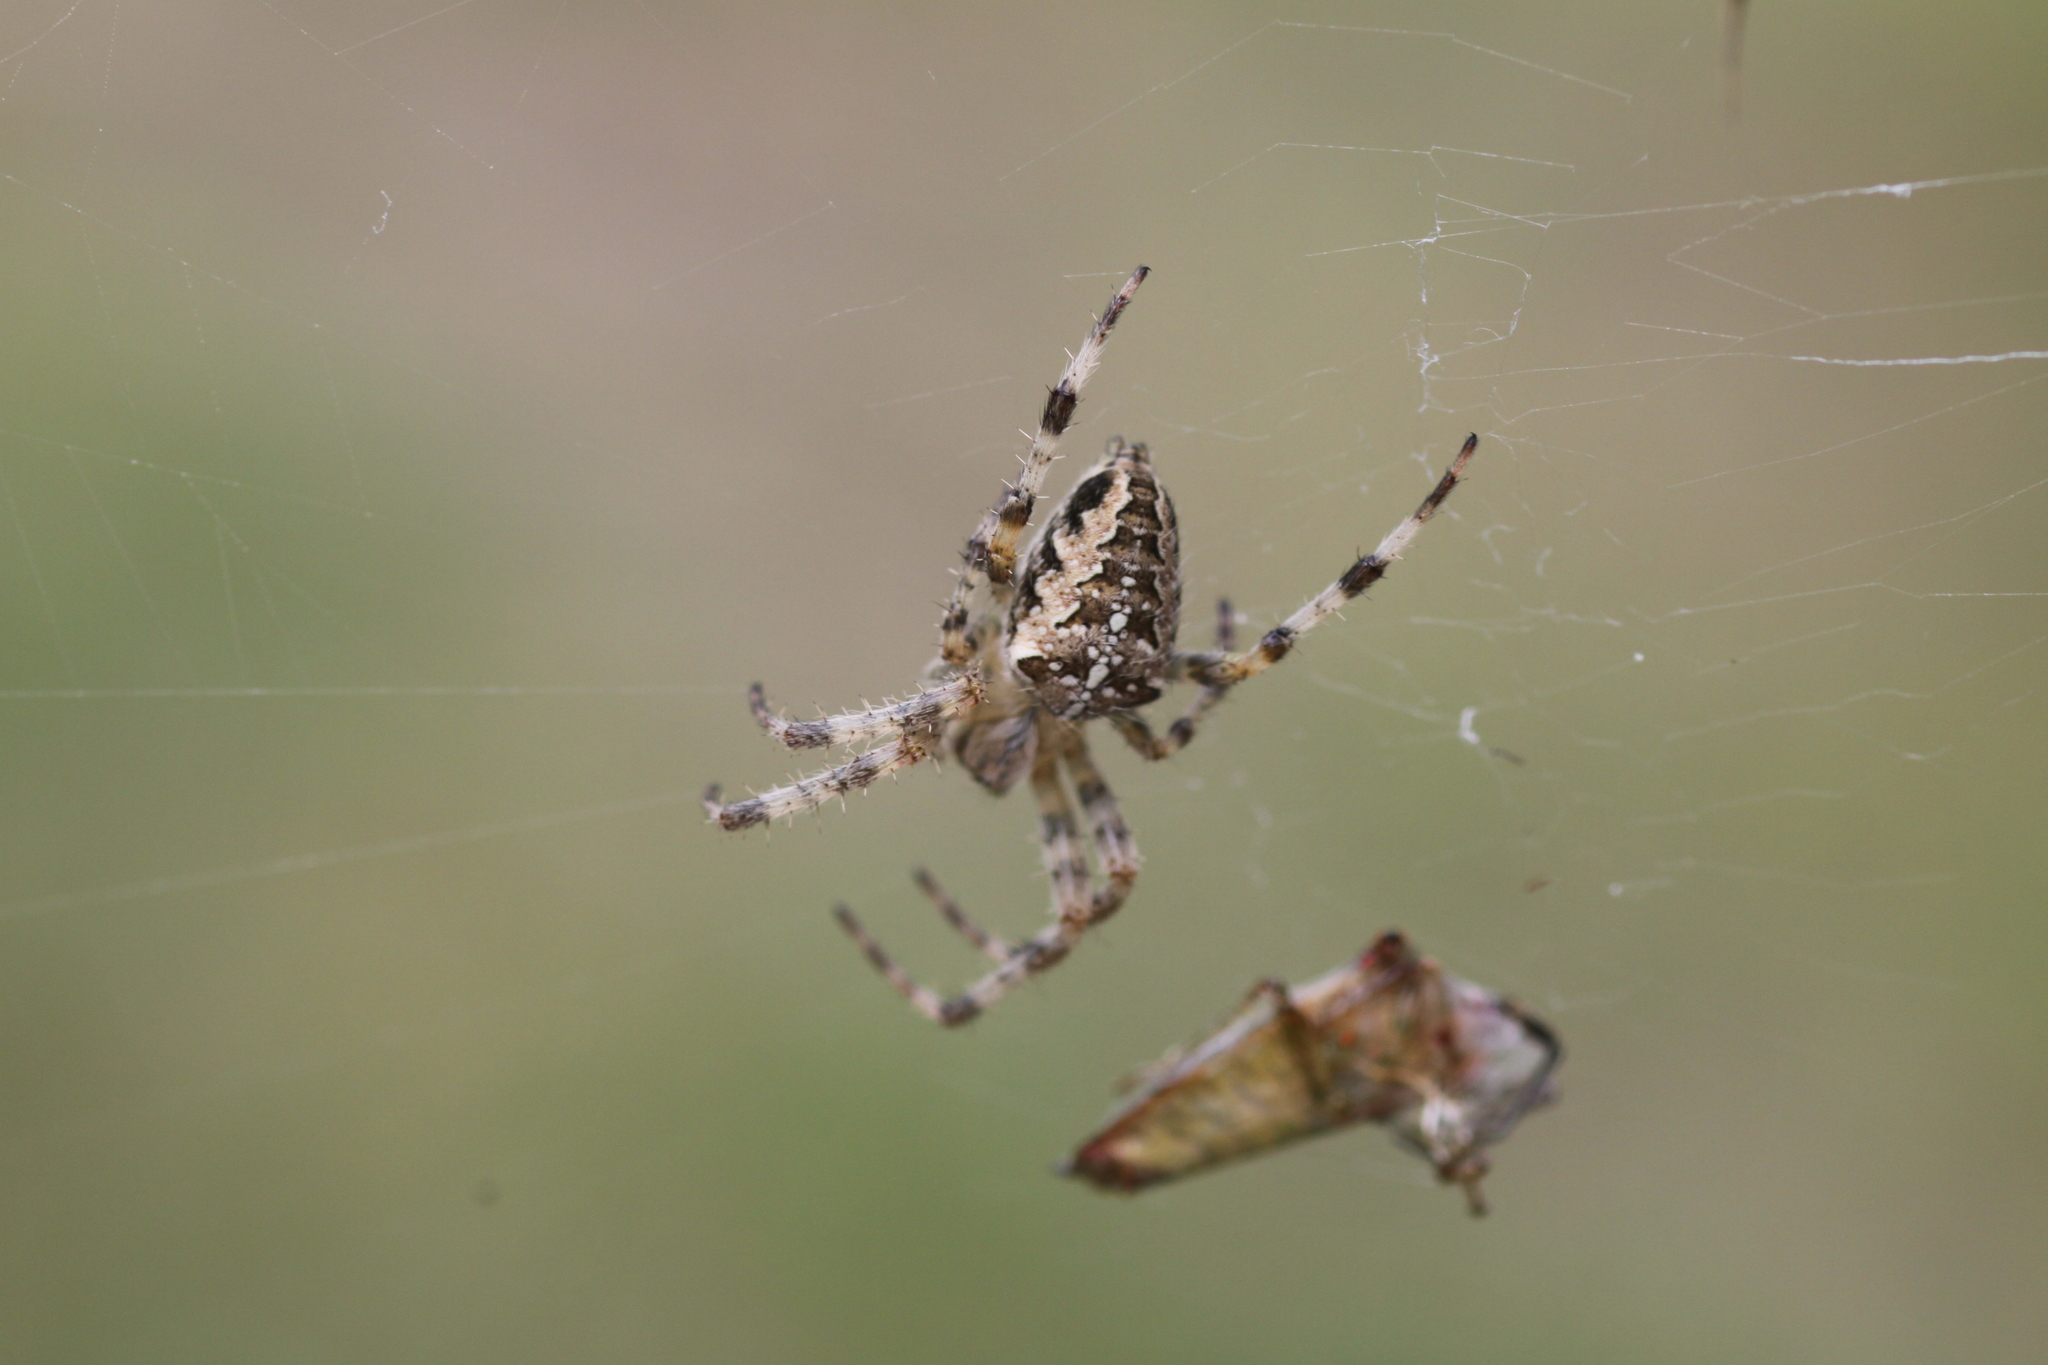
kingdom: Animalia
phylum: Arthropoda
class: Arachnida
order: Araneae
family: Araneidae
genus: Araneus
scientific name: Araneus diadematus
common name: Cross orbweaver
